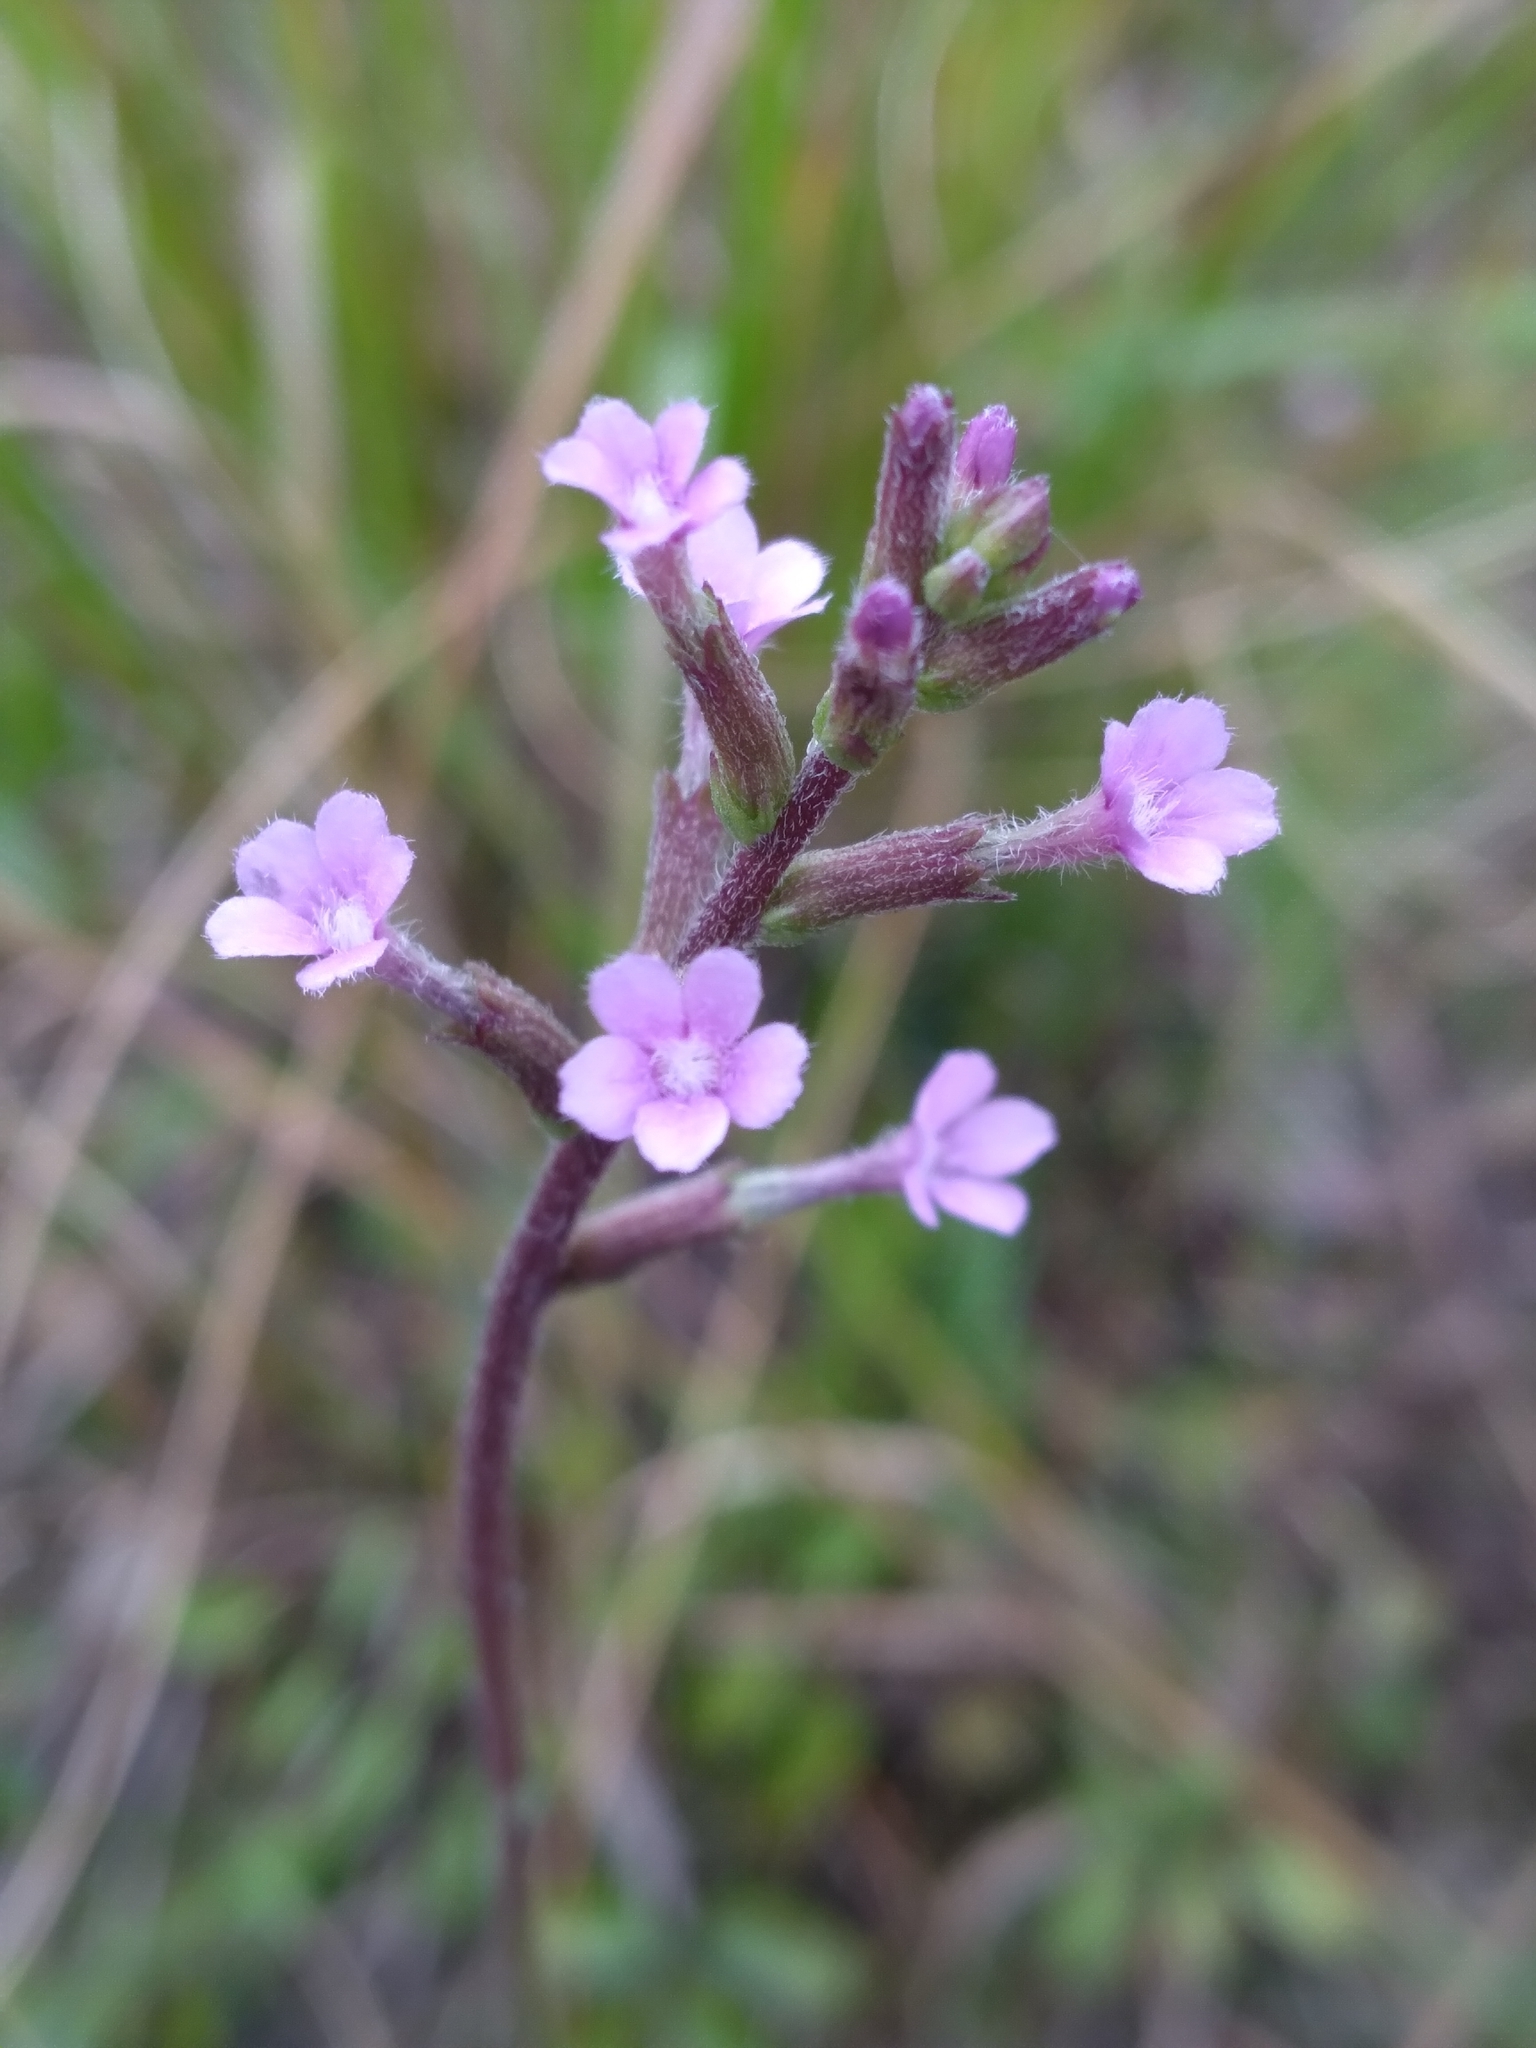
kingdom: Plantae
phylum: Tracheophyta
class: Magnoliopsida
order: Lamiales
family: Orobanchaceae
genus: Buchnera
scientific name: Buchnera floridana
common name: Florida bluehearts
